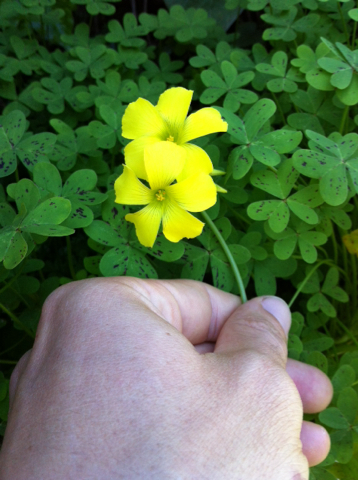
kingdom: Plantae
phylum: Tracheophyta
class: Magnoliopsida
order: Oxalidales
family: Oxalidaceae
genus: Oxalis
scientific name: Oxalis pes-caprae
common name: Bermuda-buttercup
